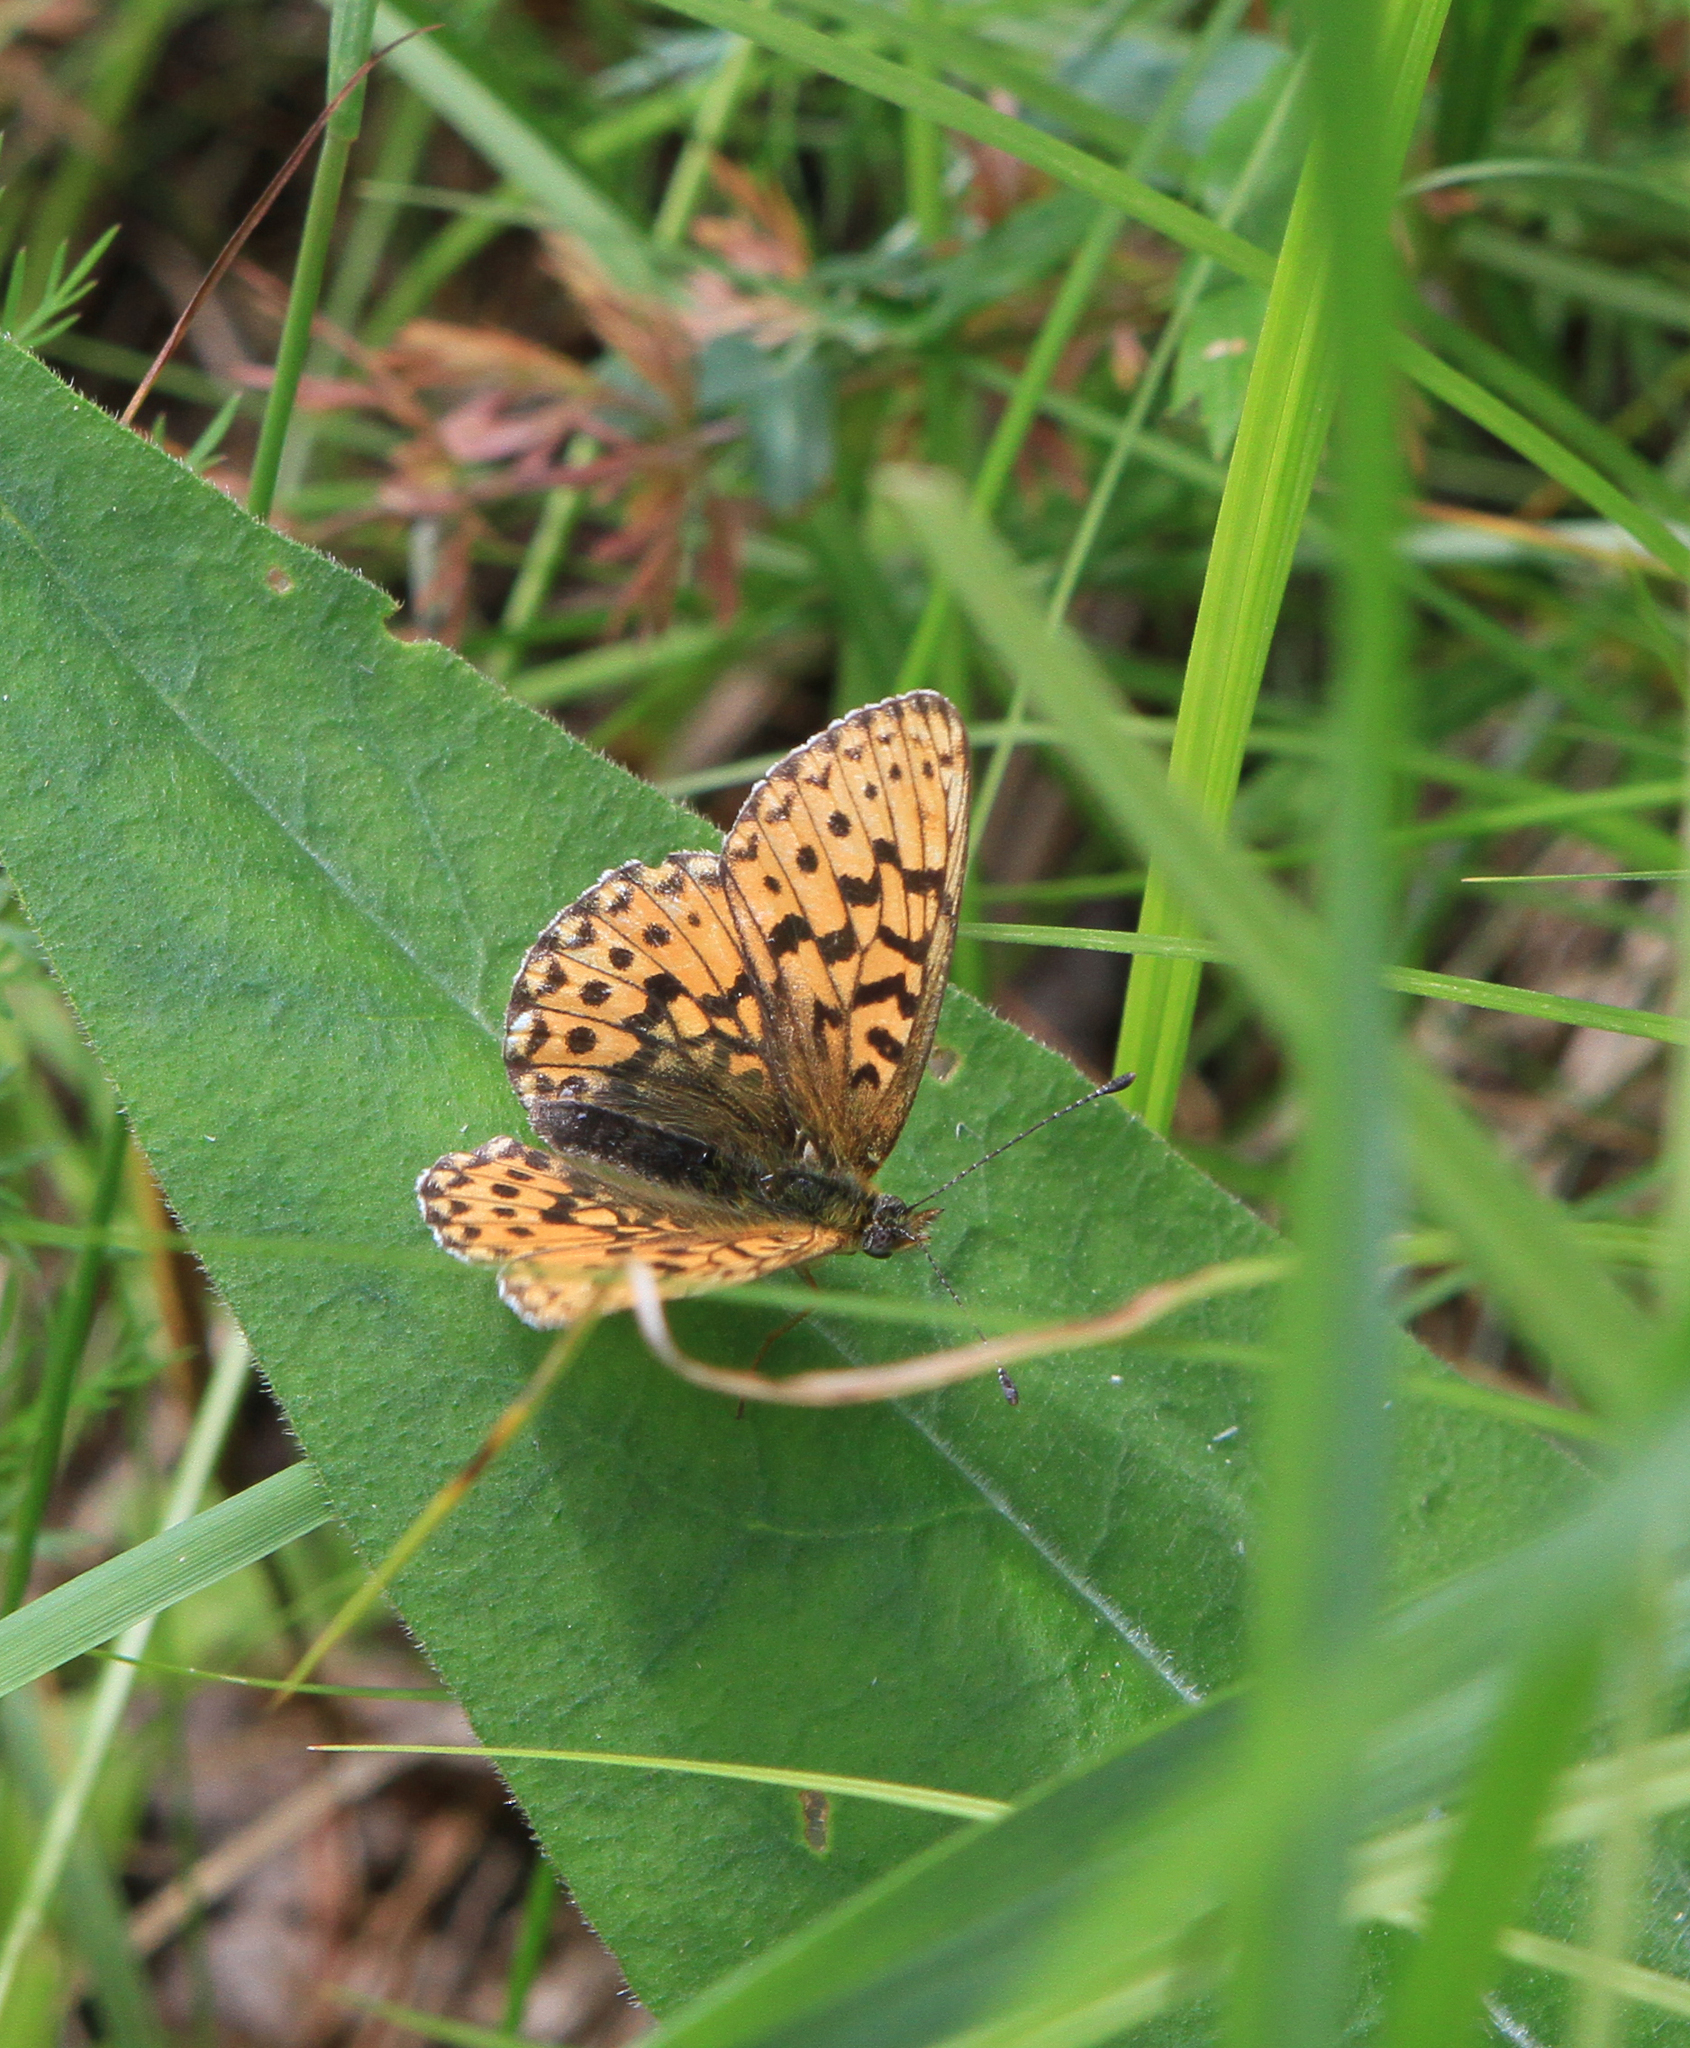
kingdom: Animalia
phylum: Arthropoda
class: Insecta
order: Lepidoptera
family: Nymphalidae
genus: Clossiana
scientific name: Clossiana euphrosyne
